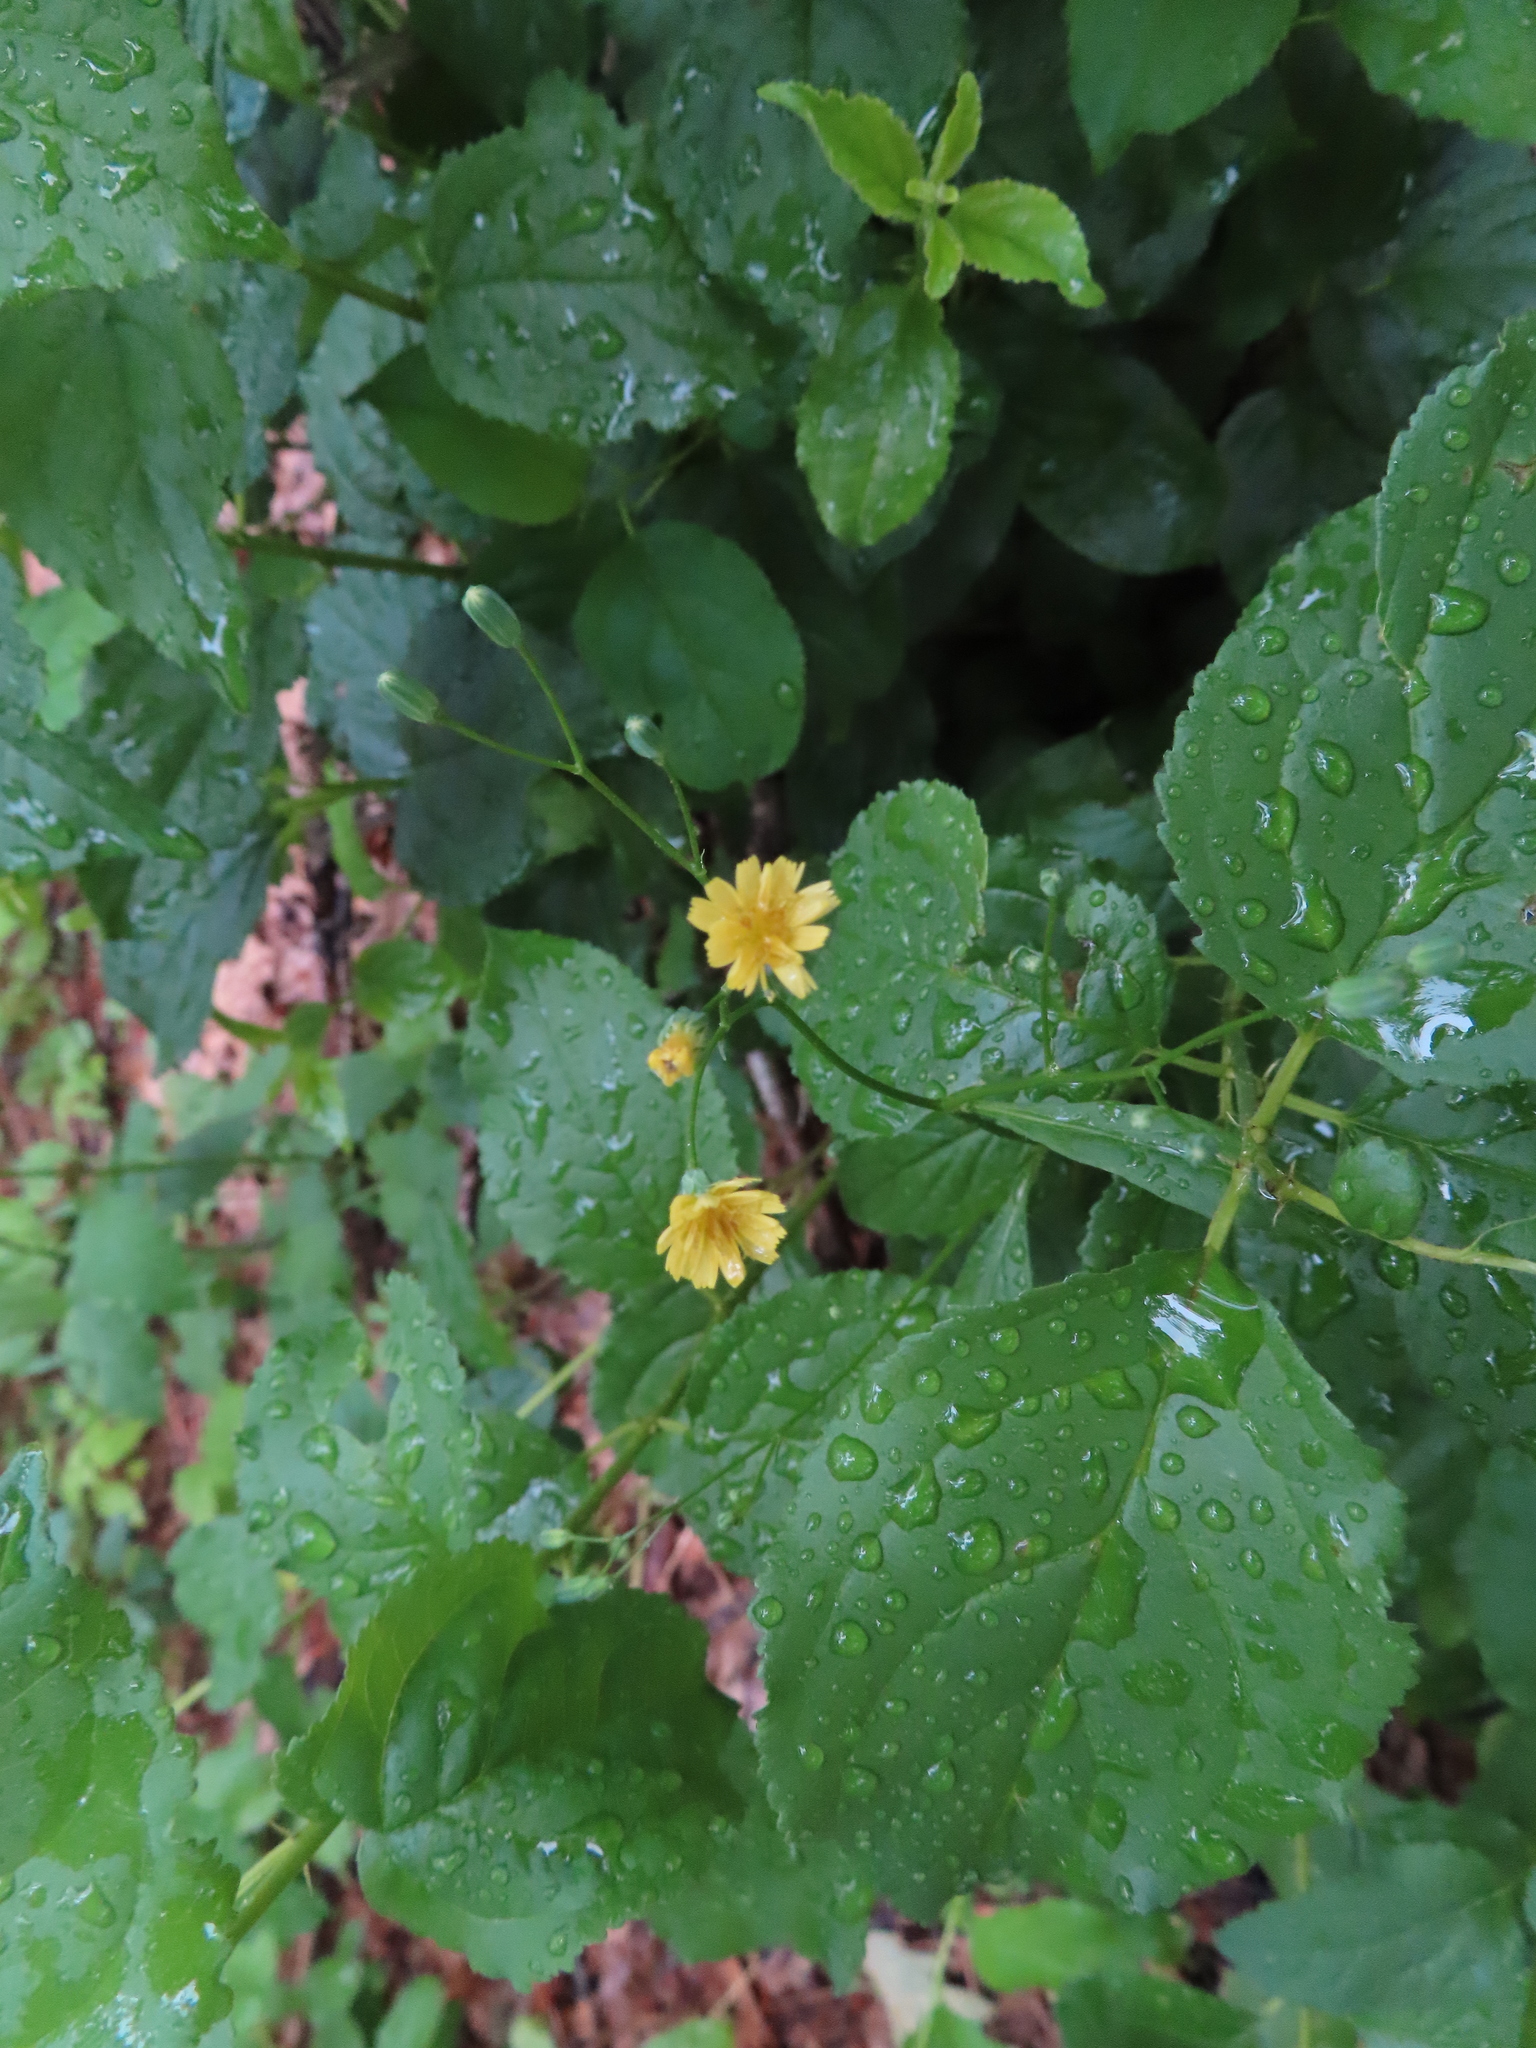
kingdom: Plantae
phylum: Tracheophyta
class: Magnoliopsida
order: Asterales
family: Asteraceae
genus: Lapsana
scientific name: Lapsana communis
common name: Nipplewort
